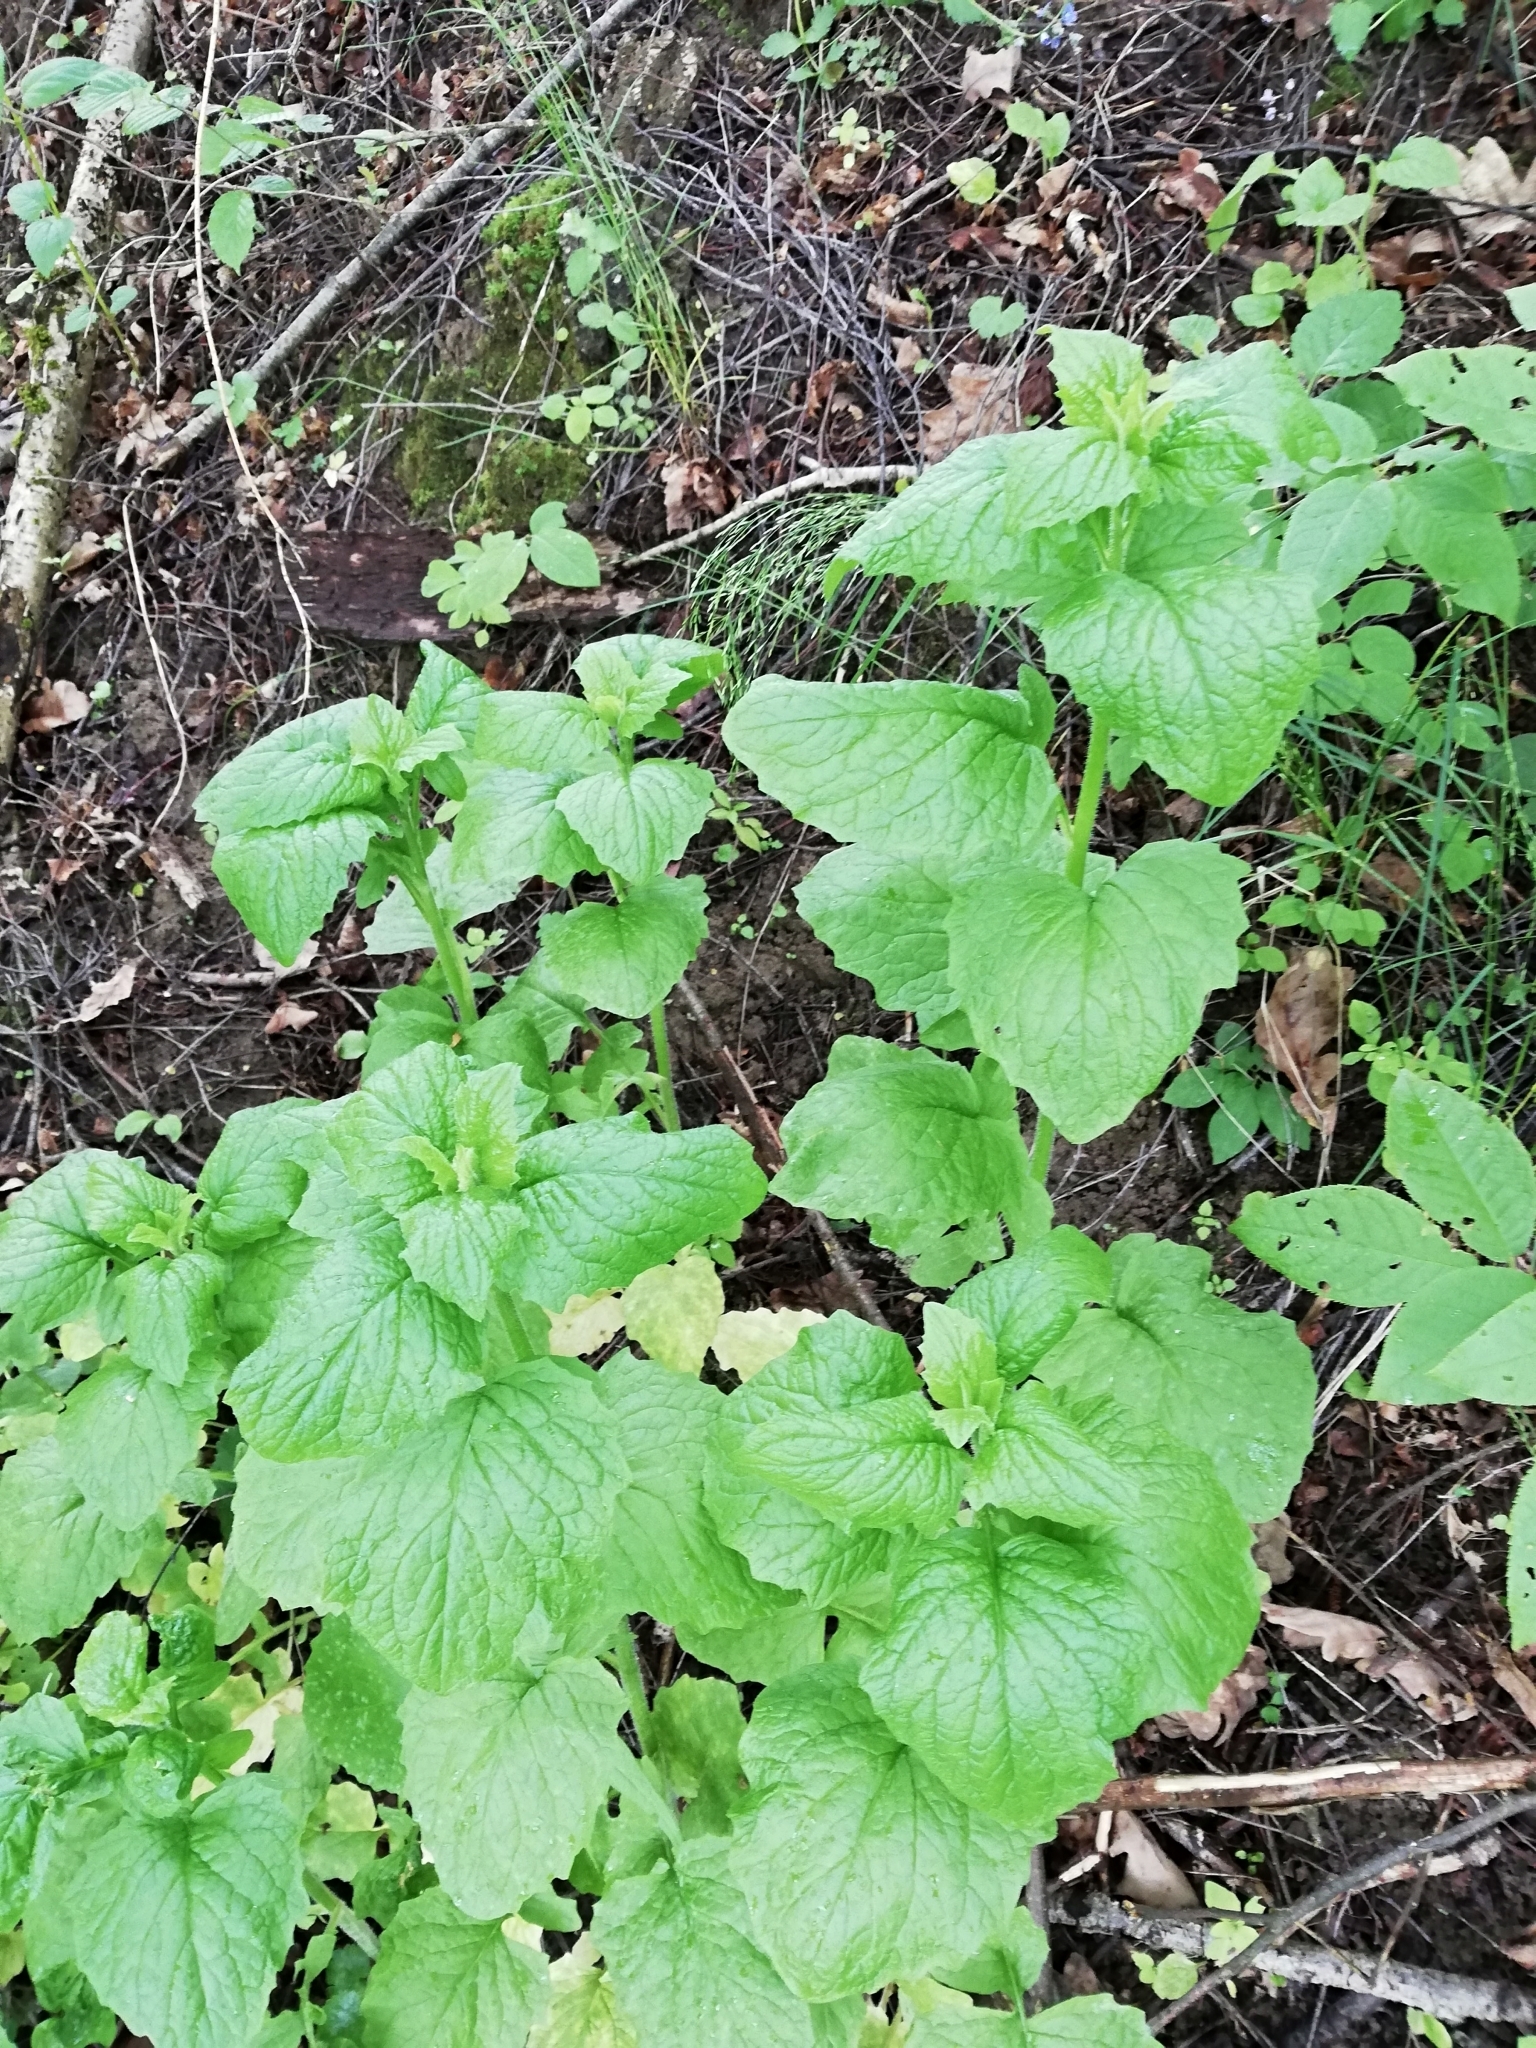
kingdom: Plantae
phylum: Tracheophyta
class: Magnoliopsida
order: Asterales
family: Asteraceae
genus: Lapsana
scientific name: Lapsana communis
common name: Nipplewort
